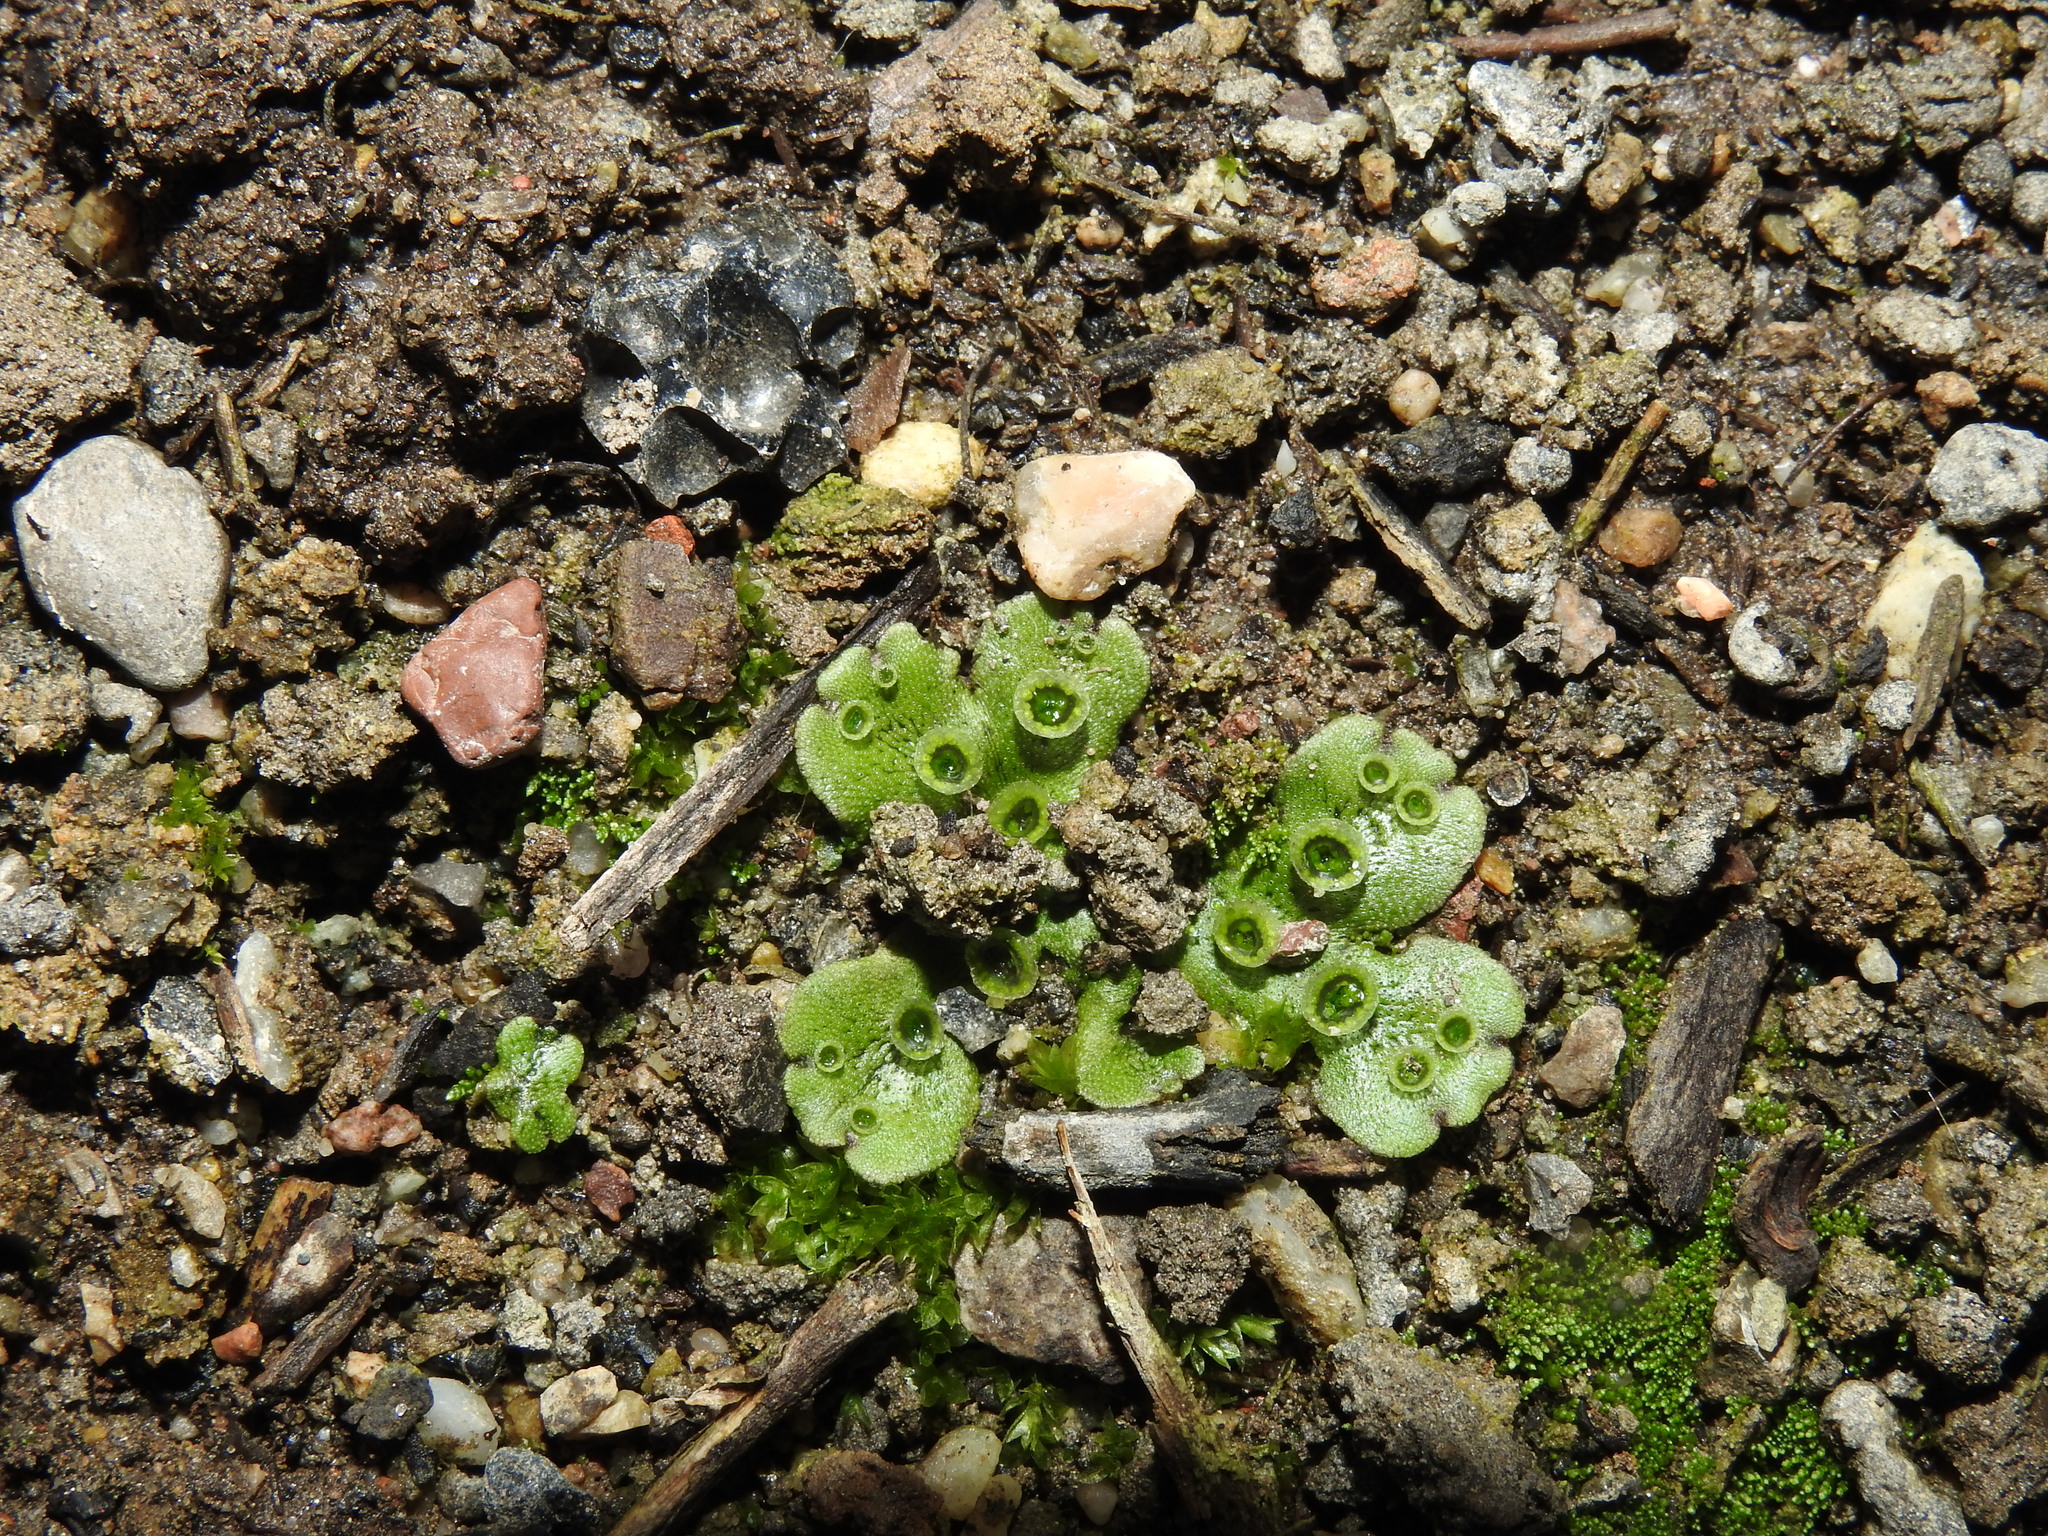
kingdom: Plantae
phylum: Marchantiophyta
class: Marchantiopsida
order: Marchantiales
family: Marchantiaceae
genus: Marchantia
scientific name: Marchantia polymorpha
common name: Common liverwort
